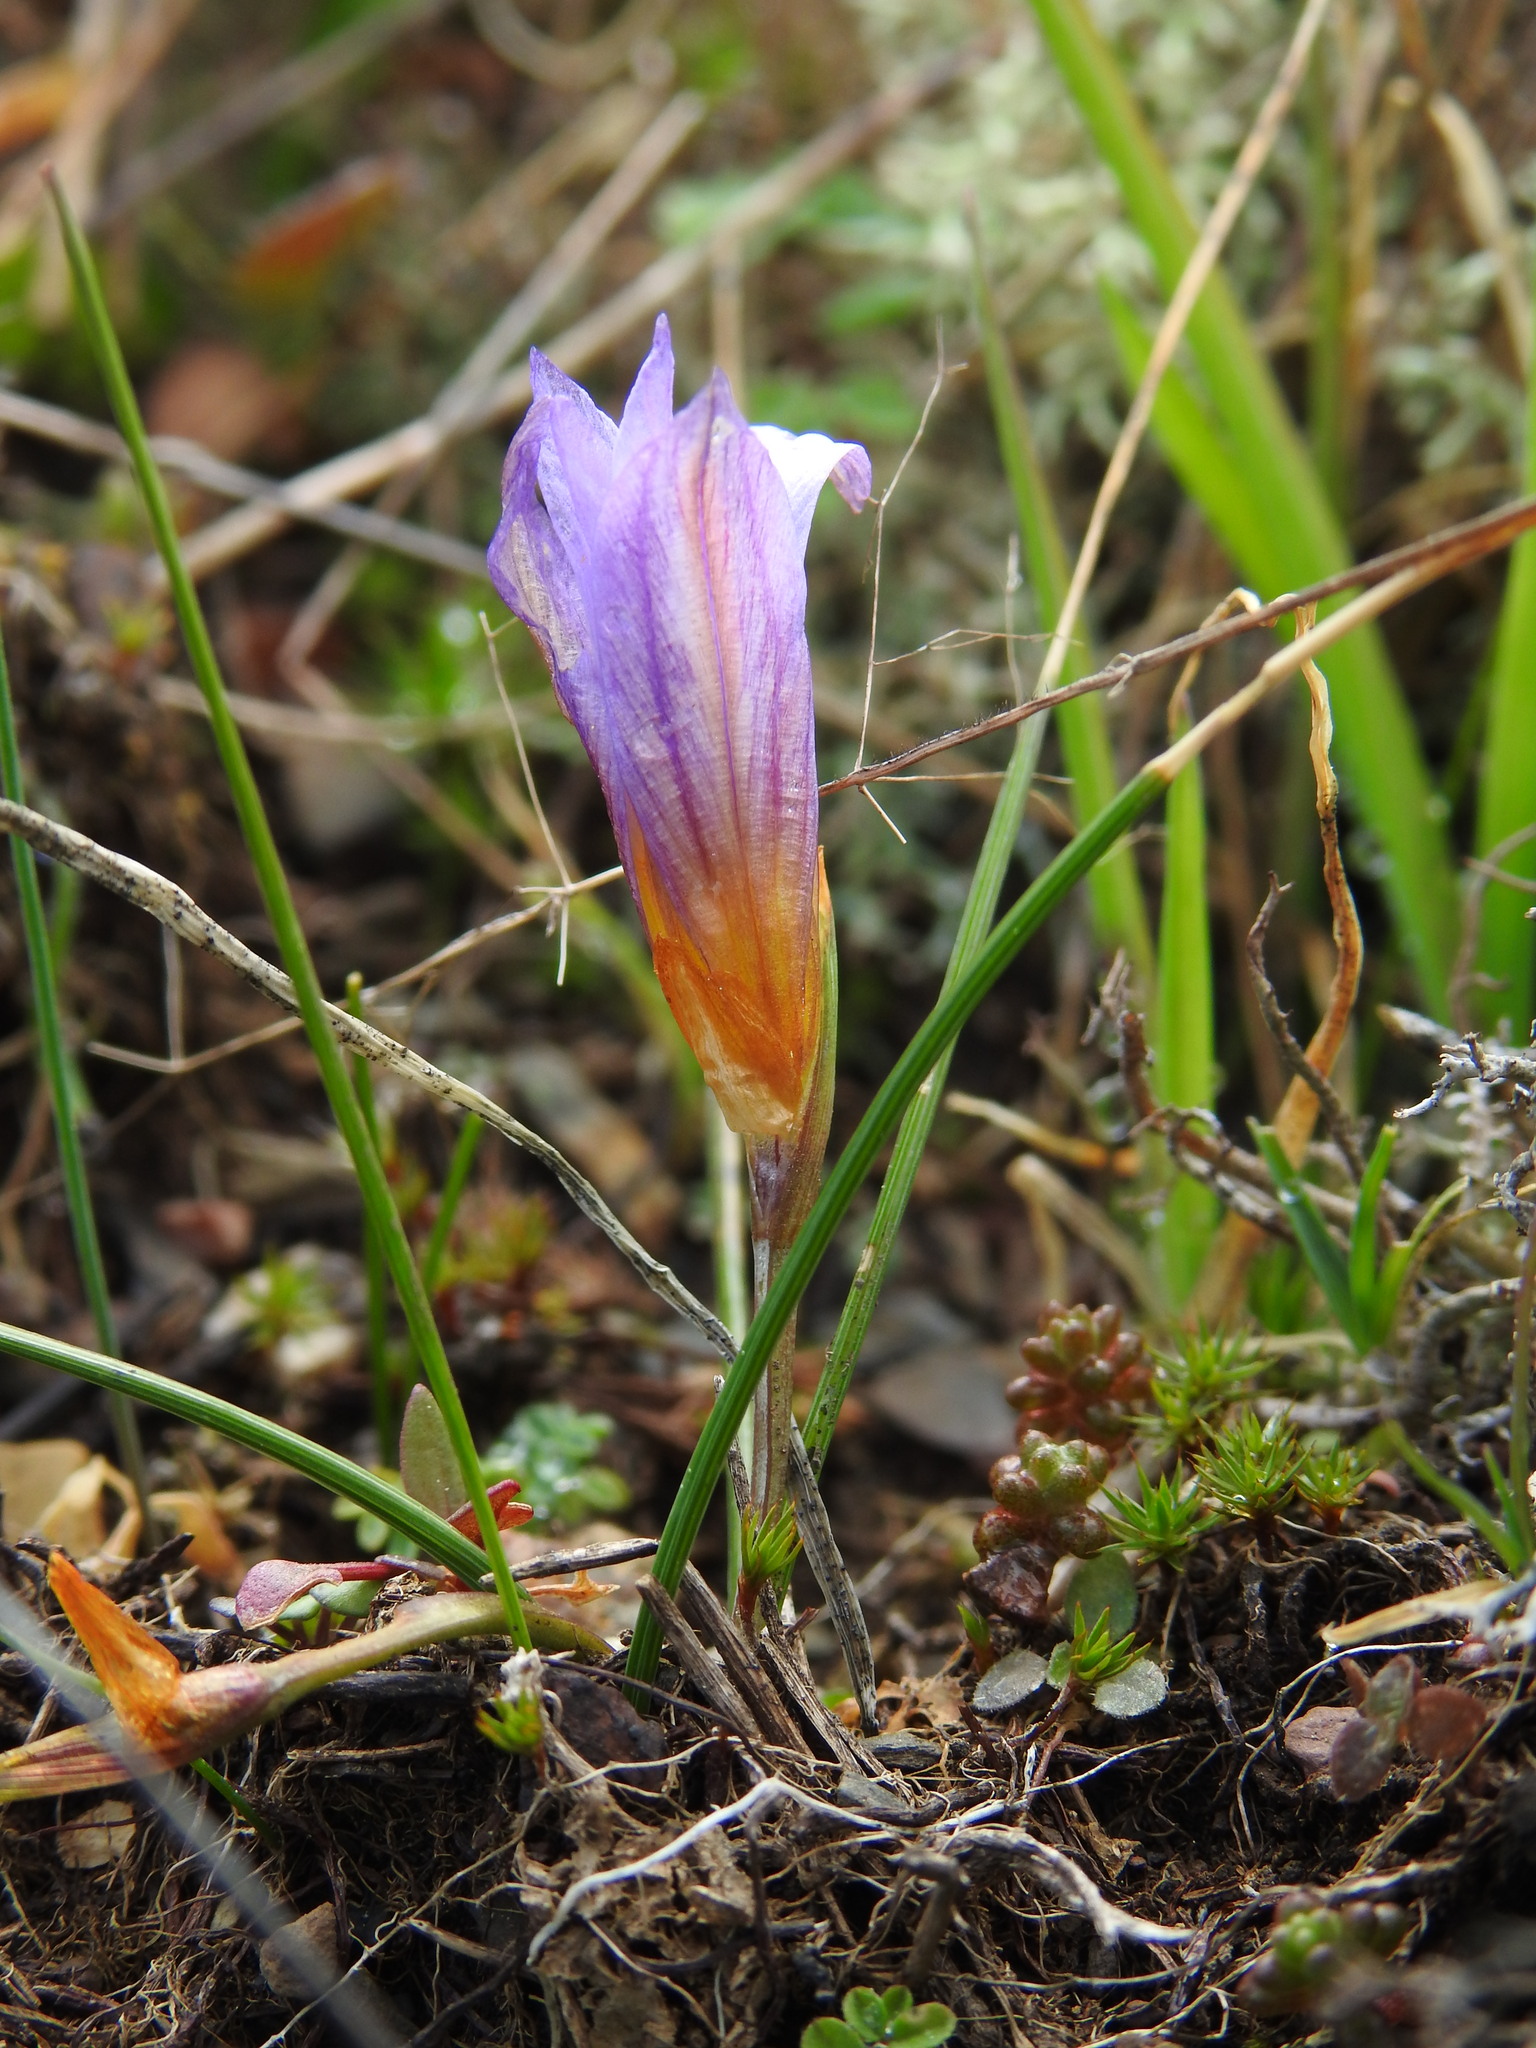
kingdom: Plantae
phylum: Tracheophyta
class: Liliopsida
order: Asparagales
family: Iridaceae
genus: Romulea
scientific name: Romulea bulbocodium
